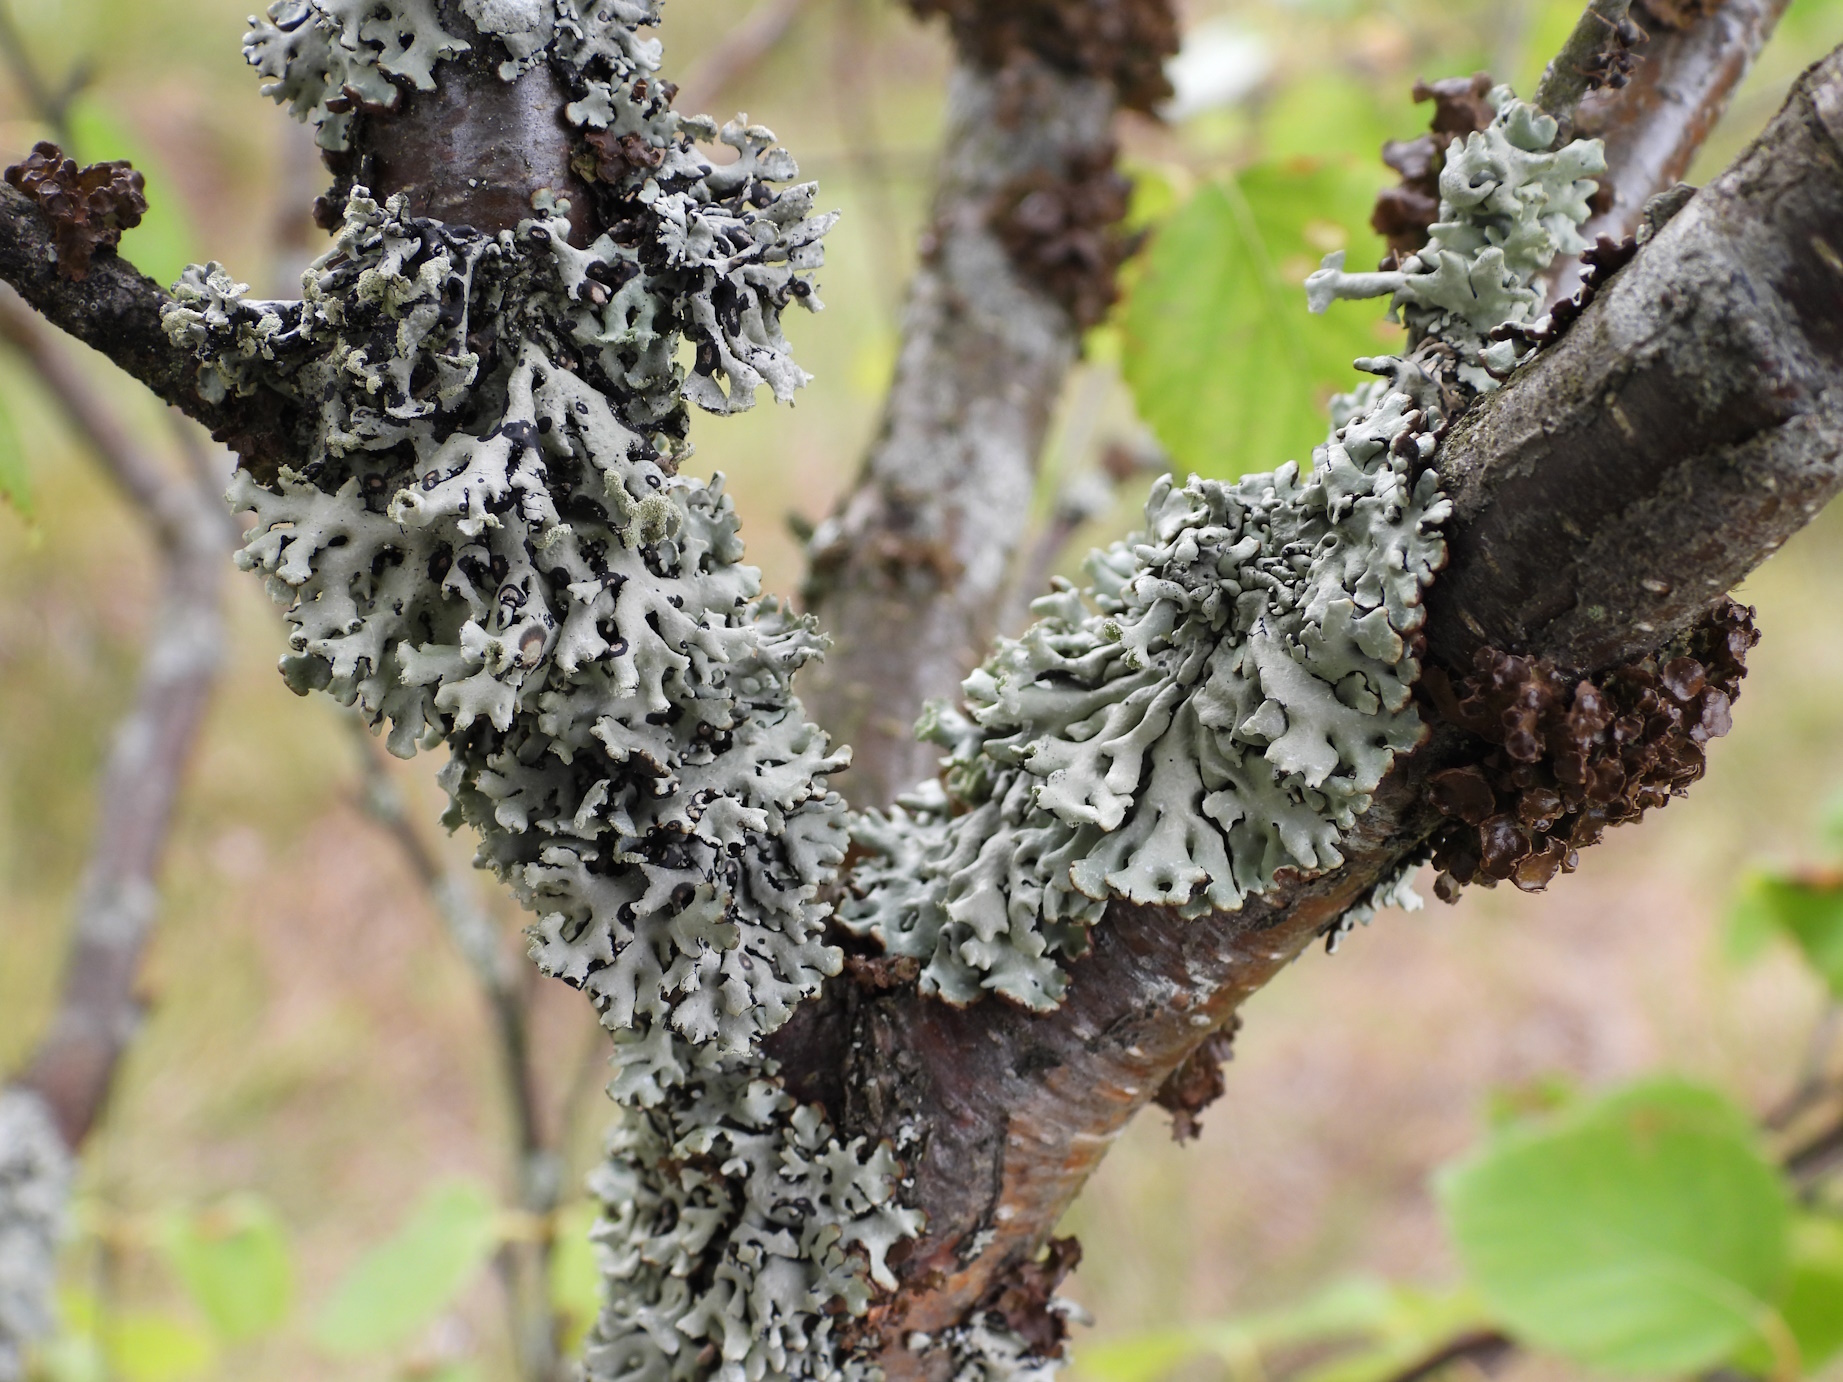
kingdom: Fungi
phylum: Ascomycota
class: Lecanoromycetes
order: Lecanorales
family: Parmeliaceae
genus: Hypogymnia
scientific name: Hypogymnia physodes
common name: Dark crottle
